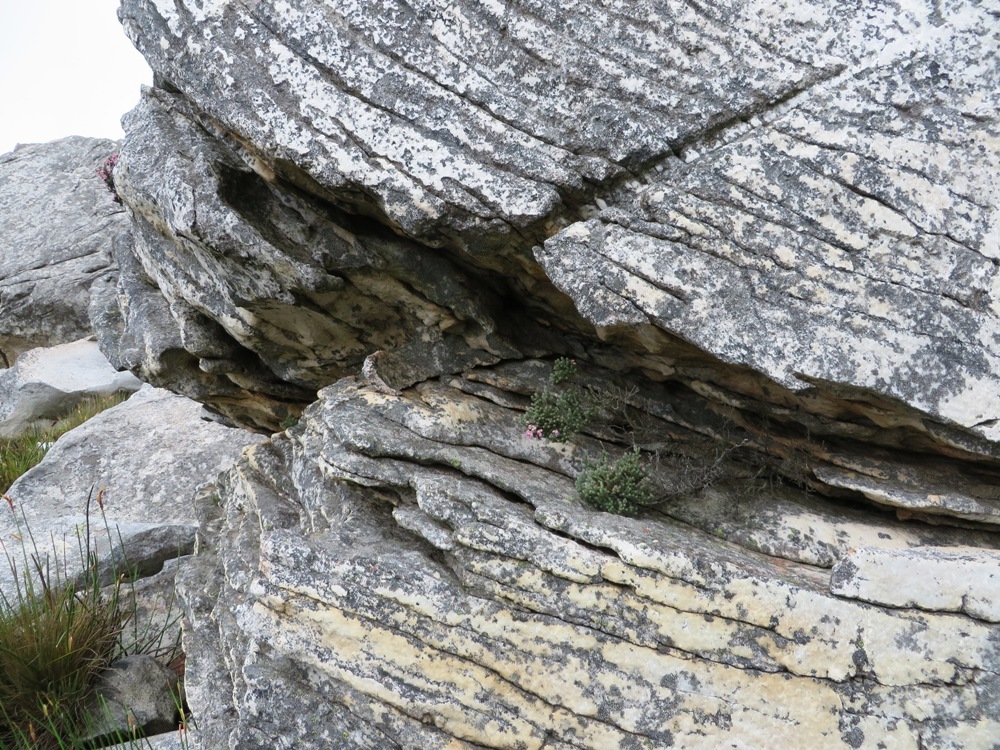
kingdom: Plantae
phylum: Tracheophyta
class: Magnoliopsida
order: Ericales
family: Ericaceae
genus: Erica
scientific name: Erica polycoma
